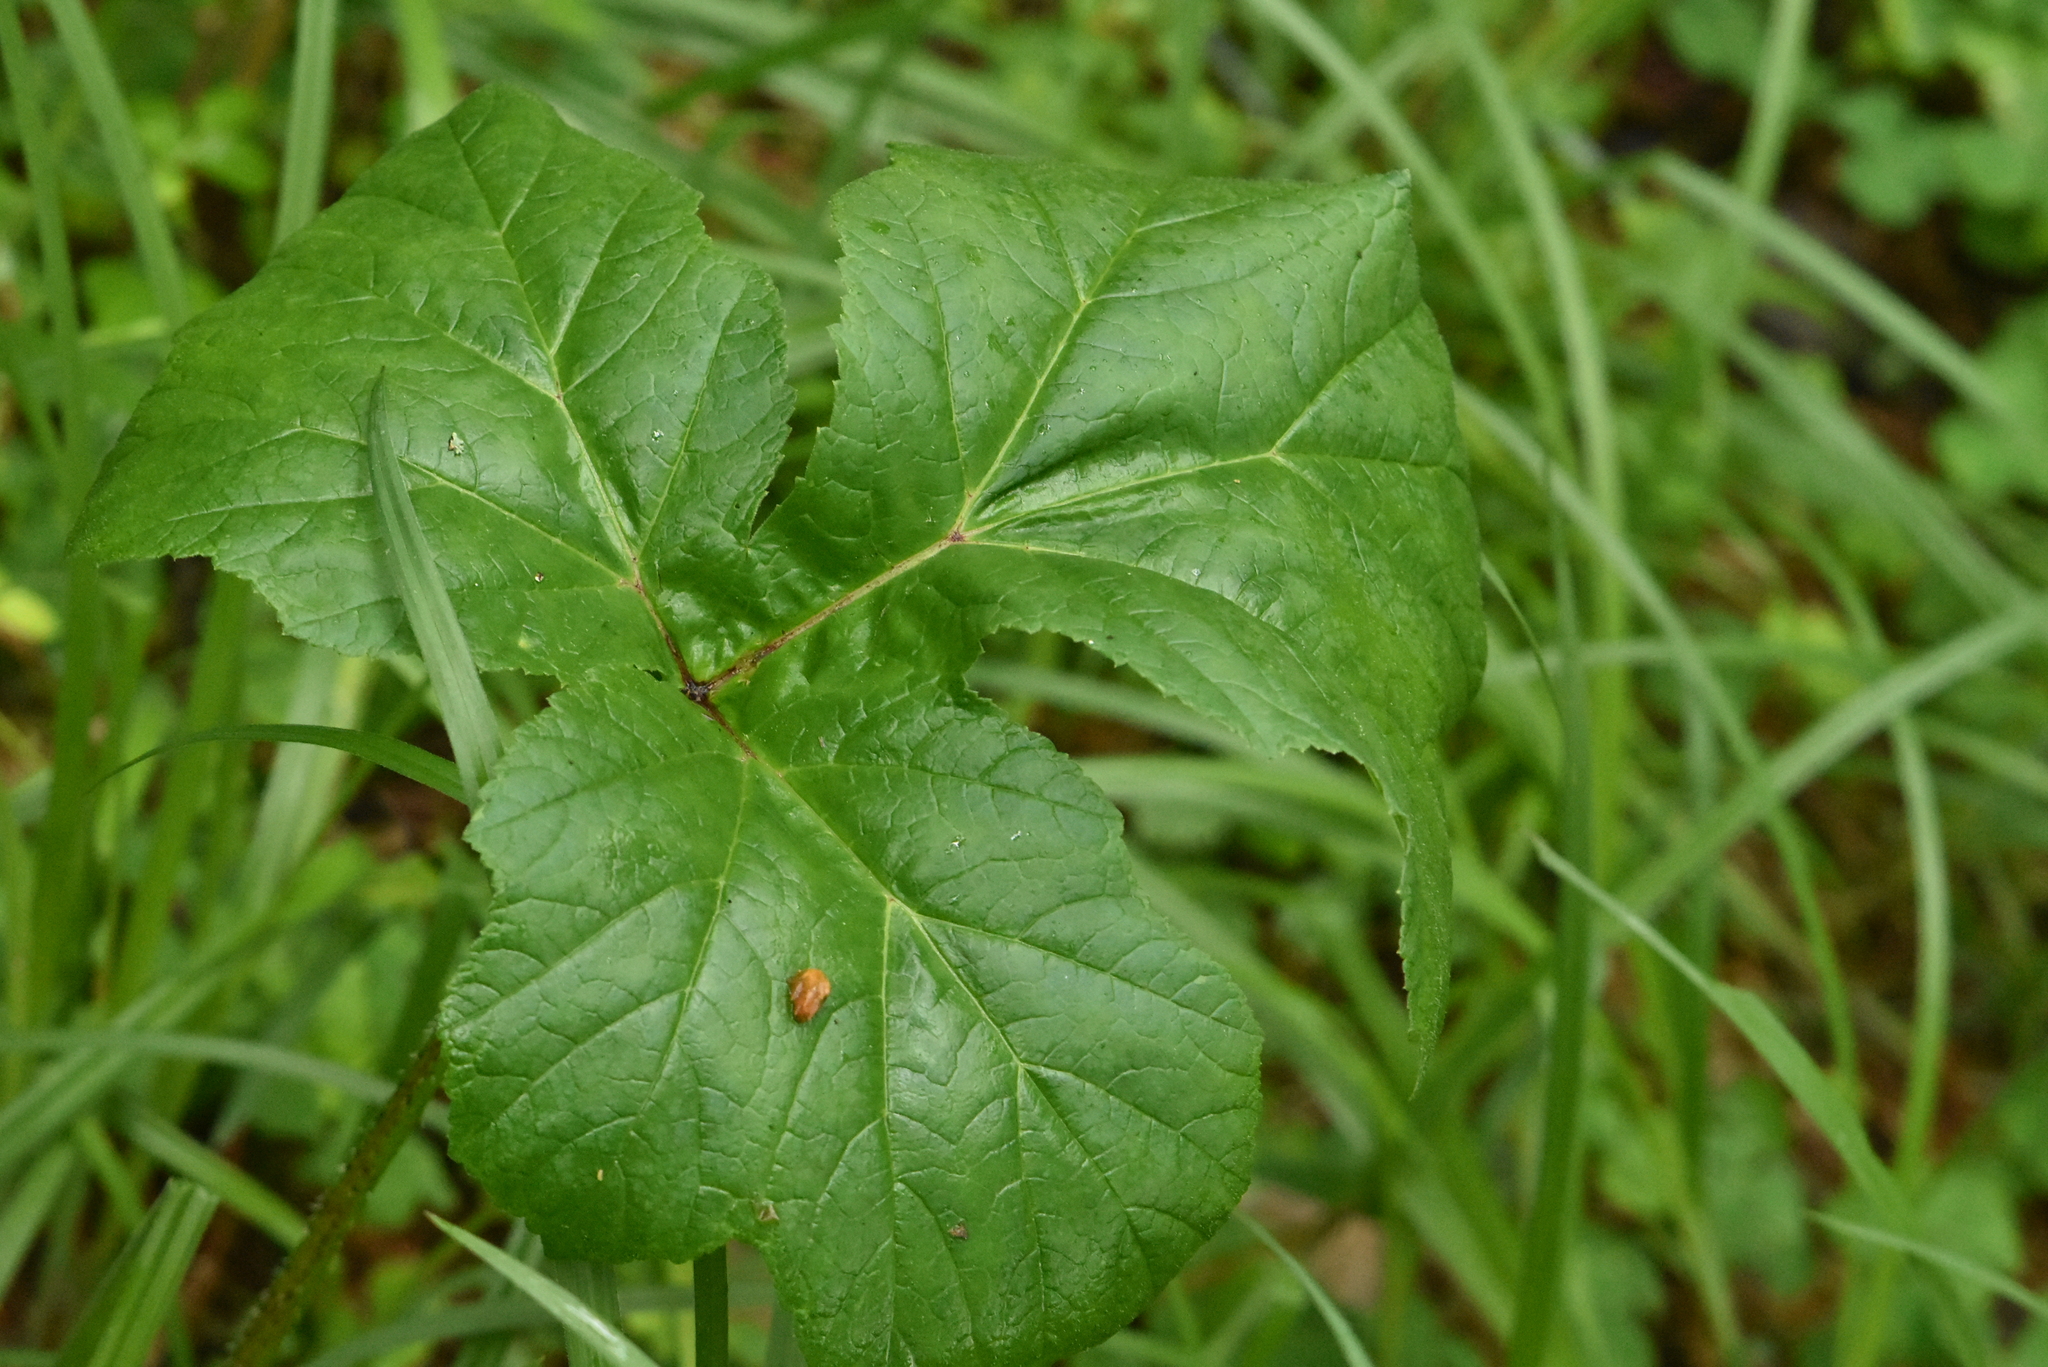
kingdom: Plantae
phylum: Tracheophyta
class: Magnoliopsida
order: Apiales
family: Apiaceae
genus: Heracleum
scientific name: Heracleum sphondylium
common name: Hogweed
